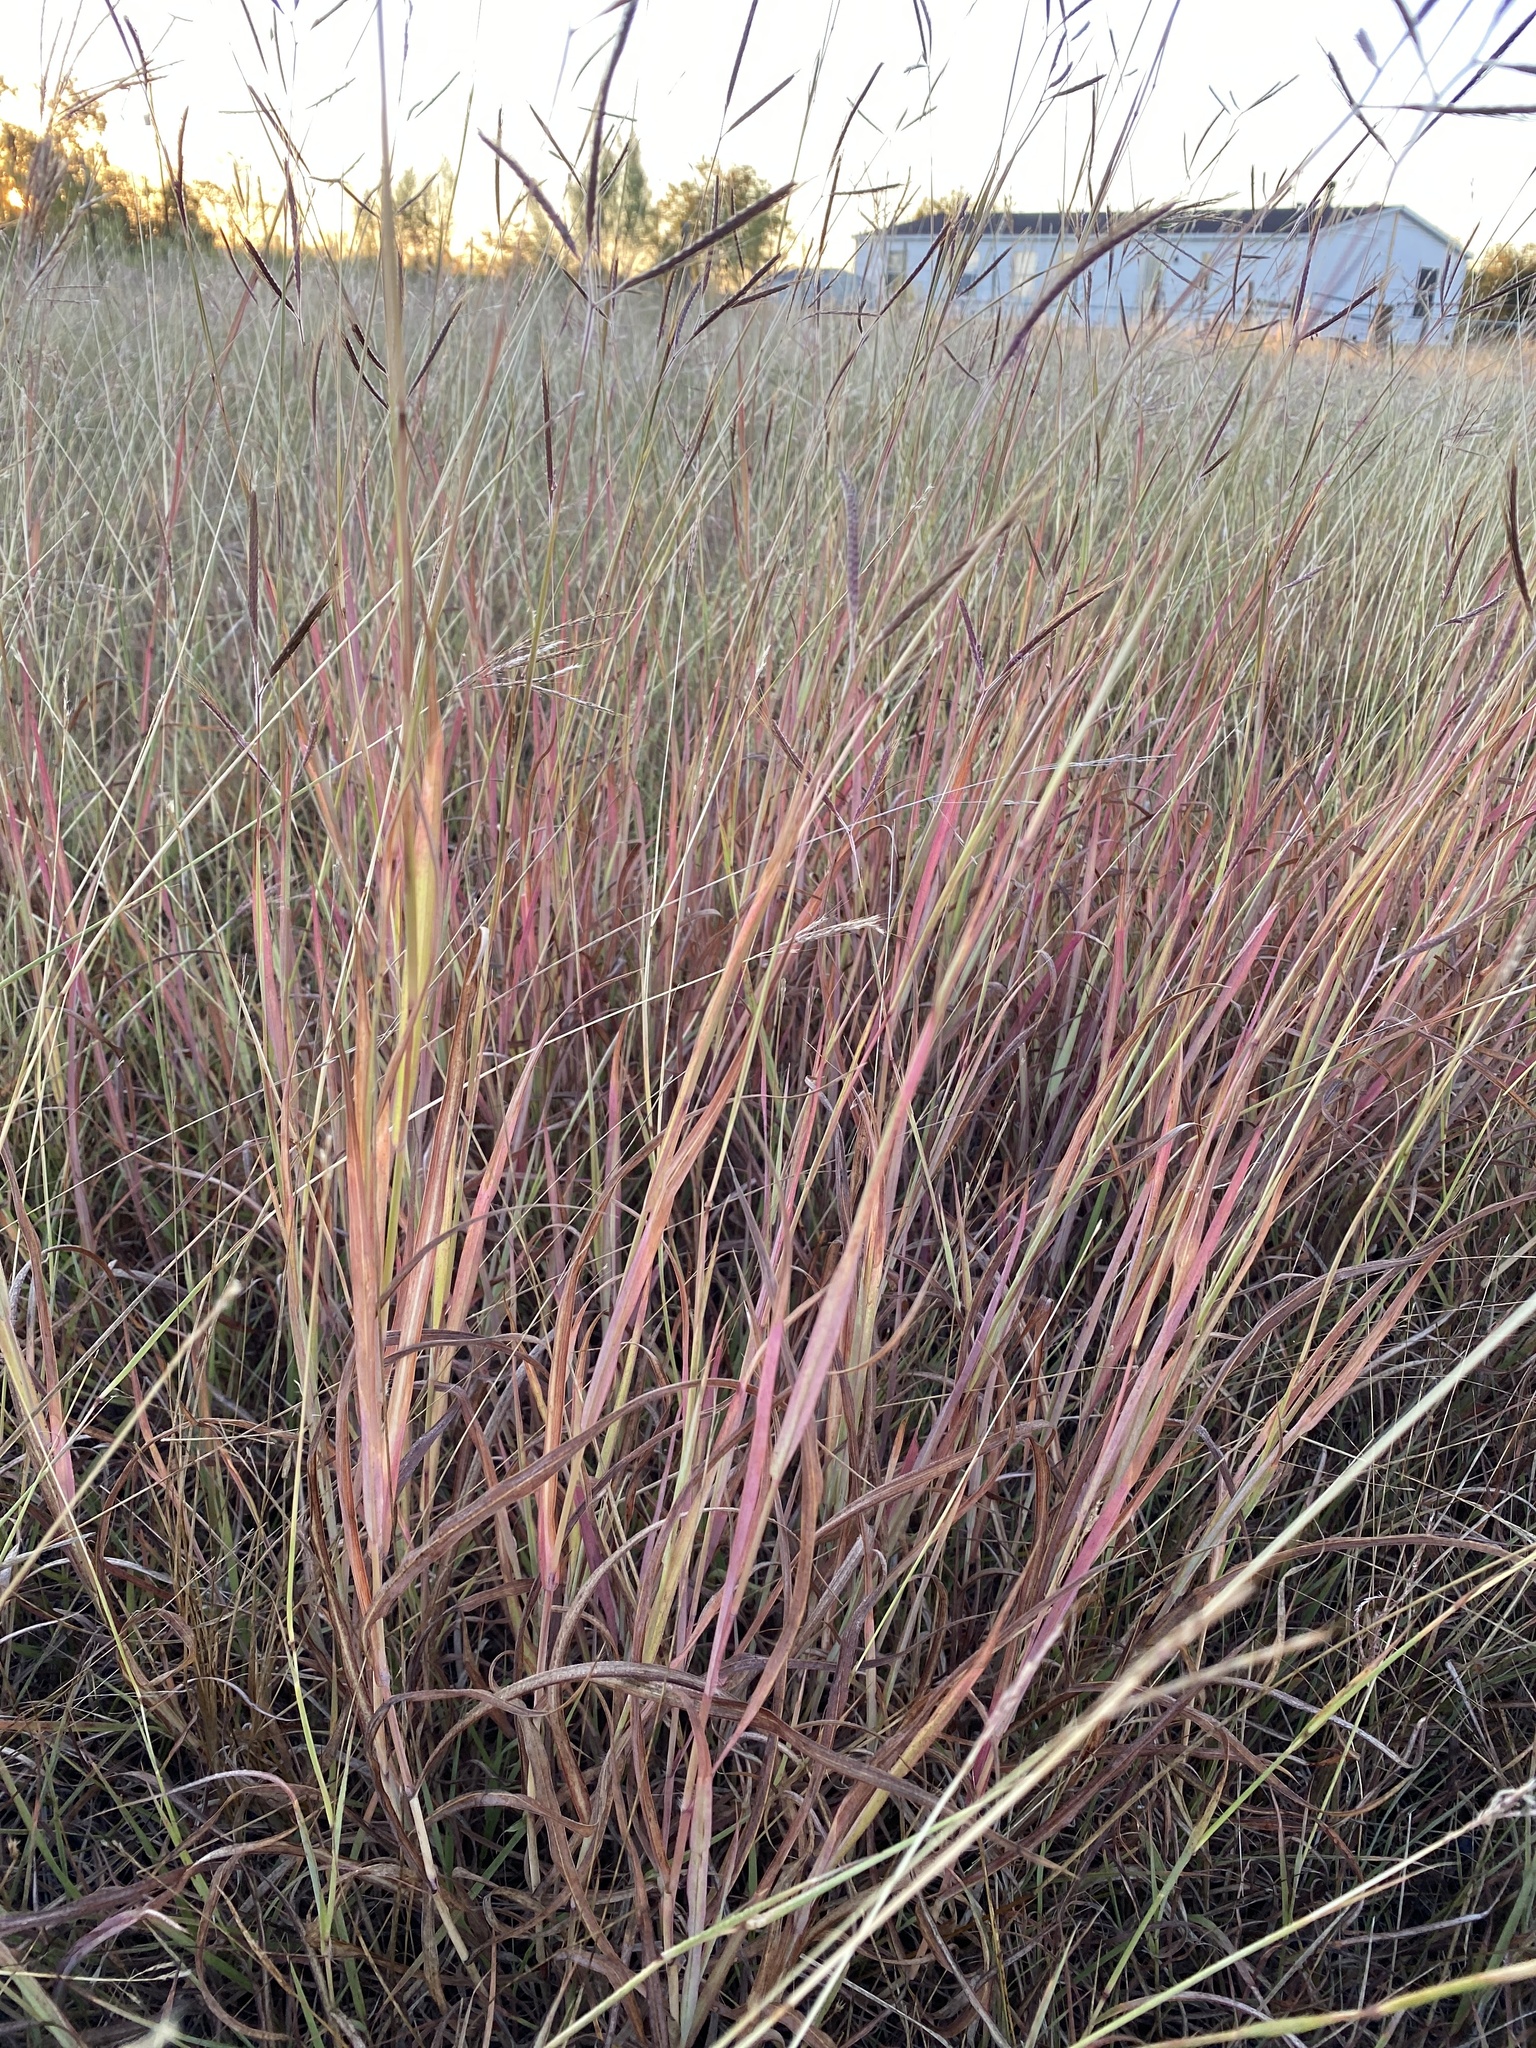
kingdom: Plantae
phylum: Tracheophyta
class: Liliopsida
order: Poales
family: Poaceae
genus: Dichanthium
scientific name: Dichanthium aristatum
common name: Angleton bluestem
